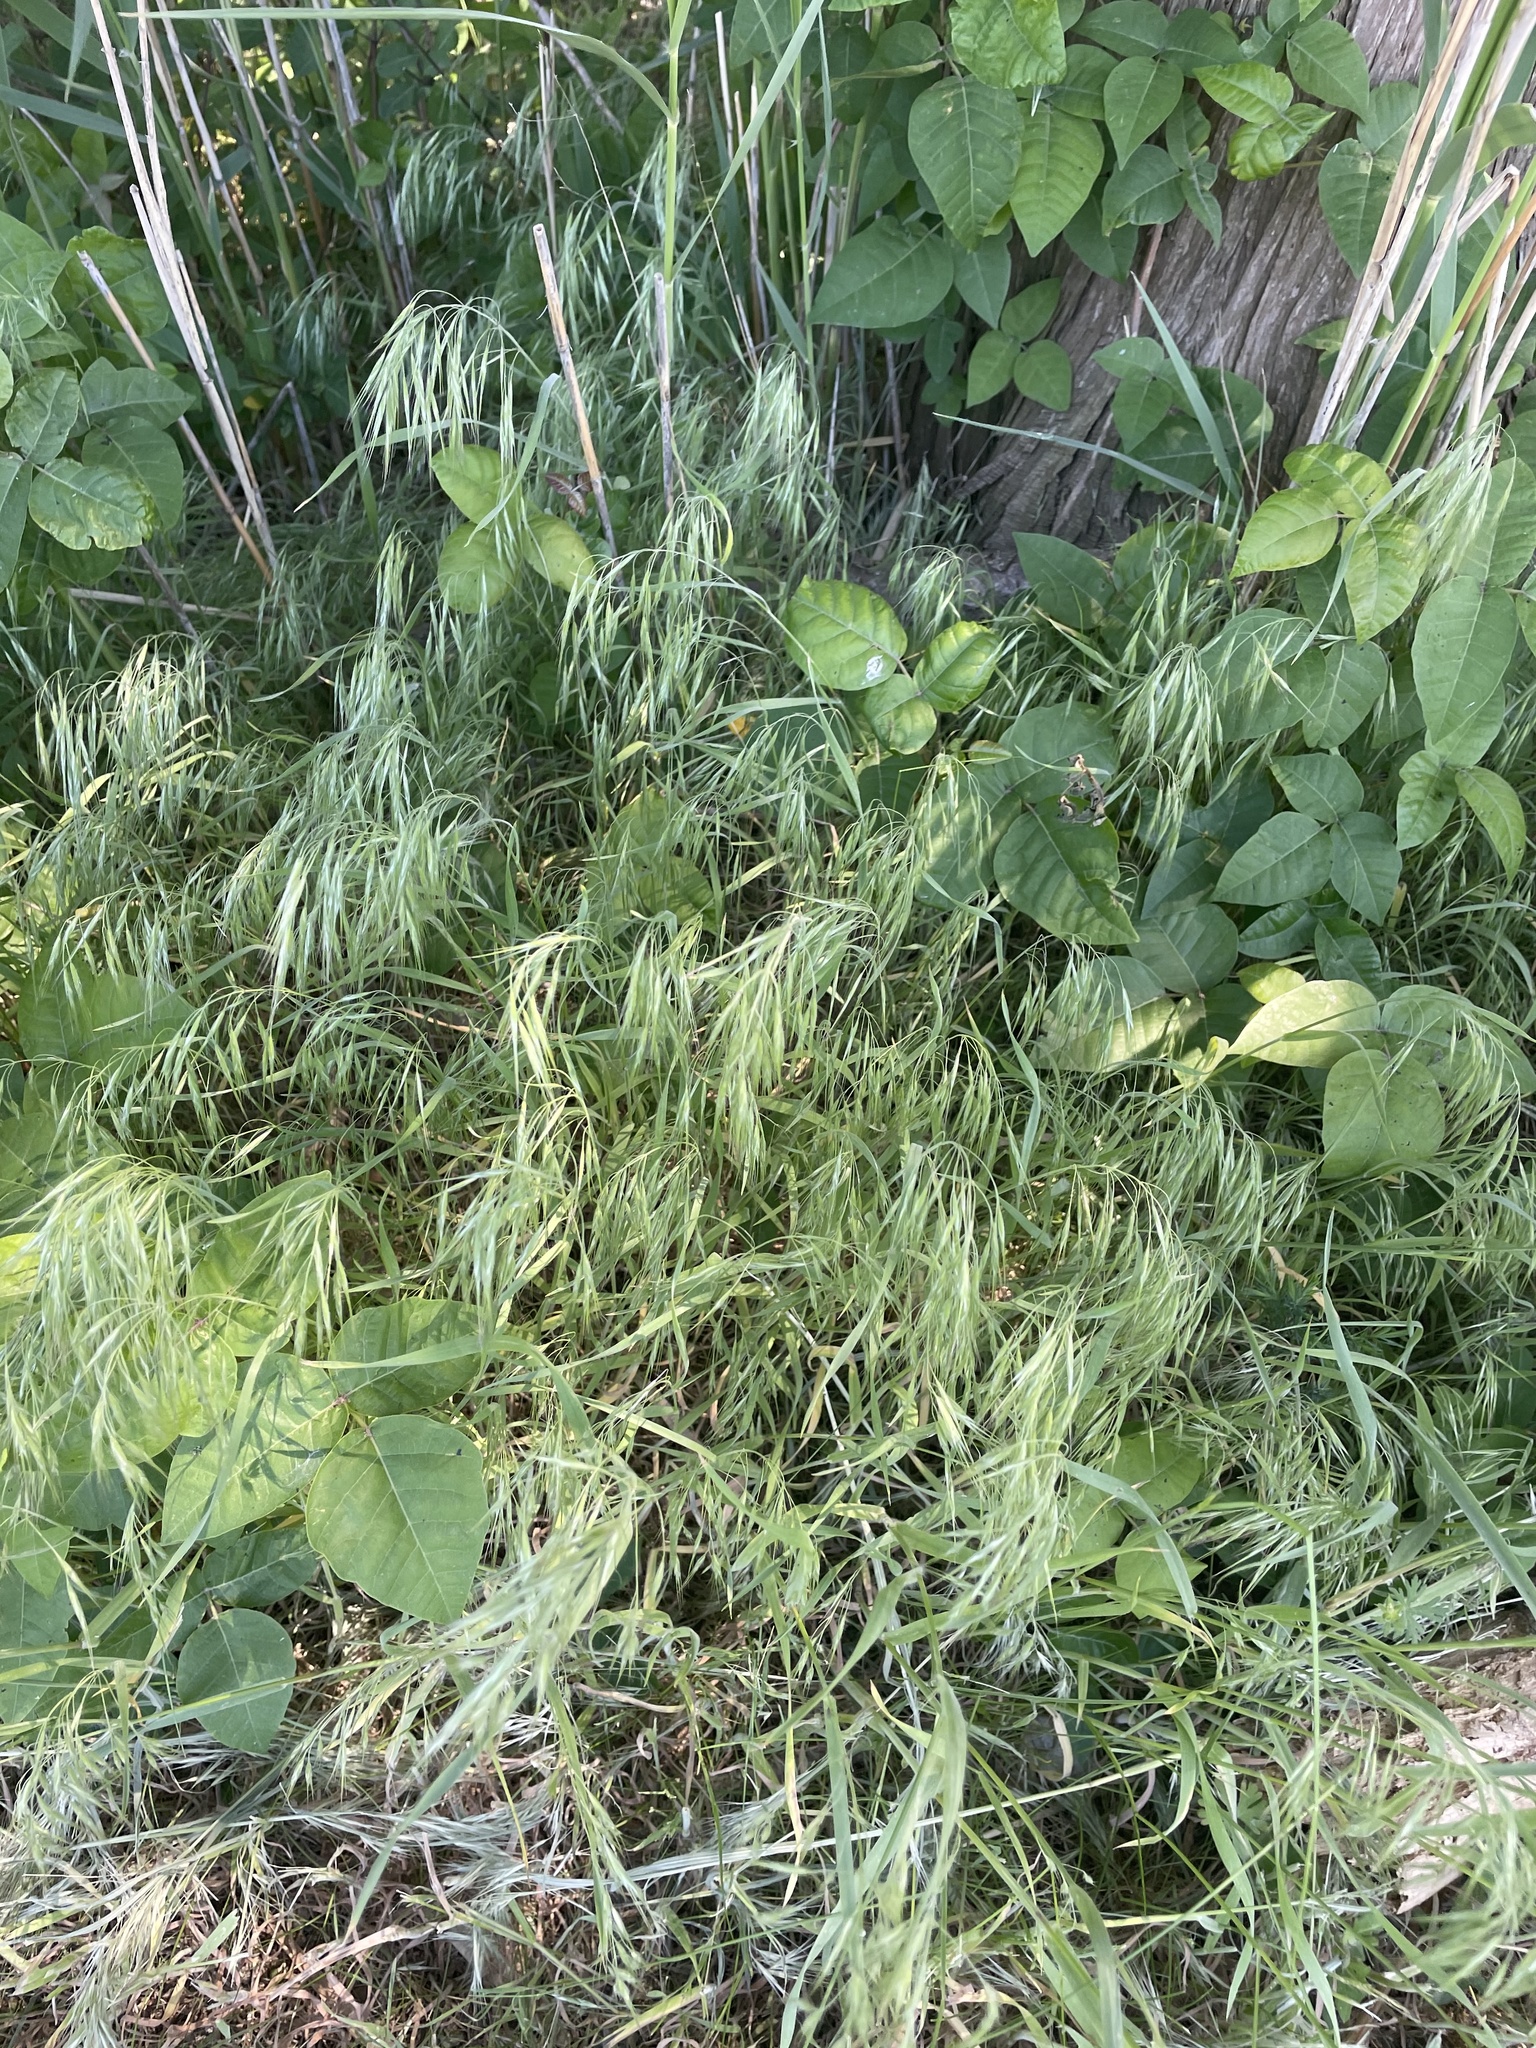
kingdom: Plantae
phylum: Tracheophyta
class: Liliopsida
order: Poales
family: Poaceae
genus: Bromus
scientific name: Bromus tectorum
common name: Cheatgrass
